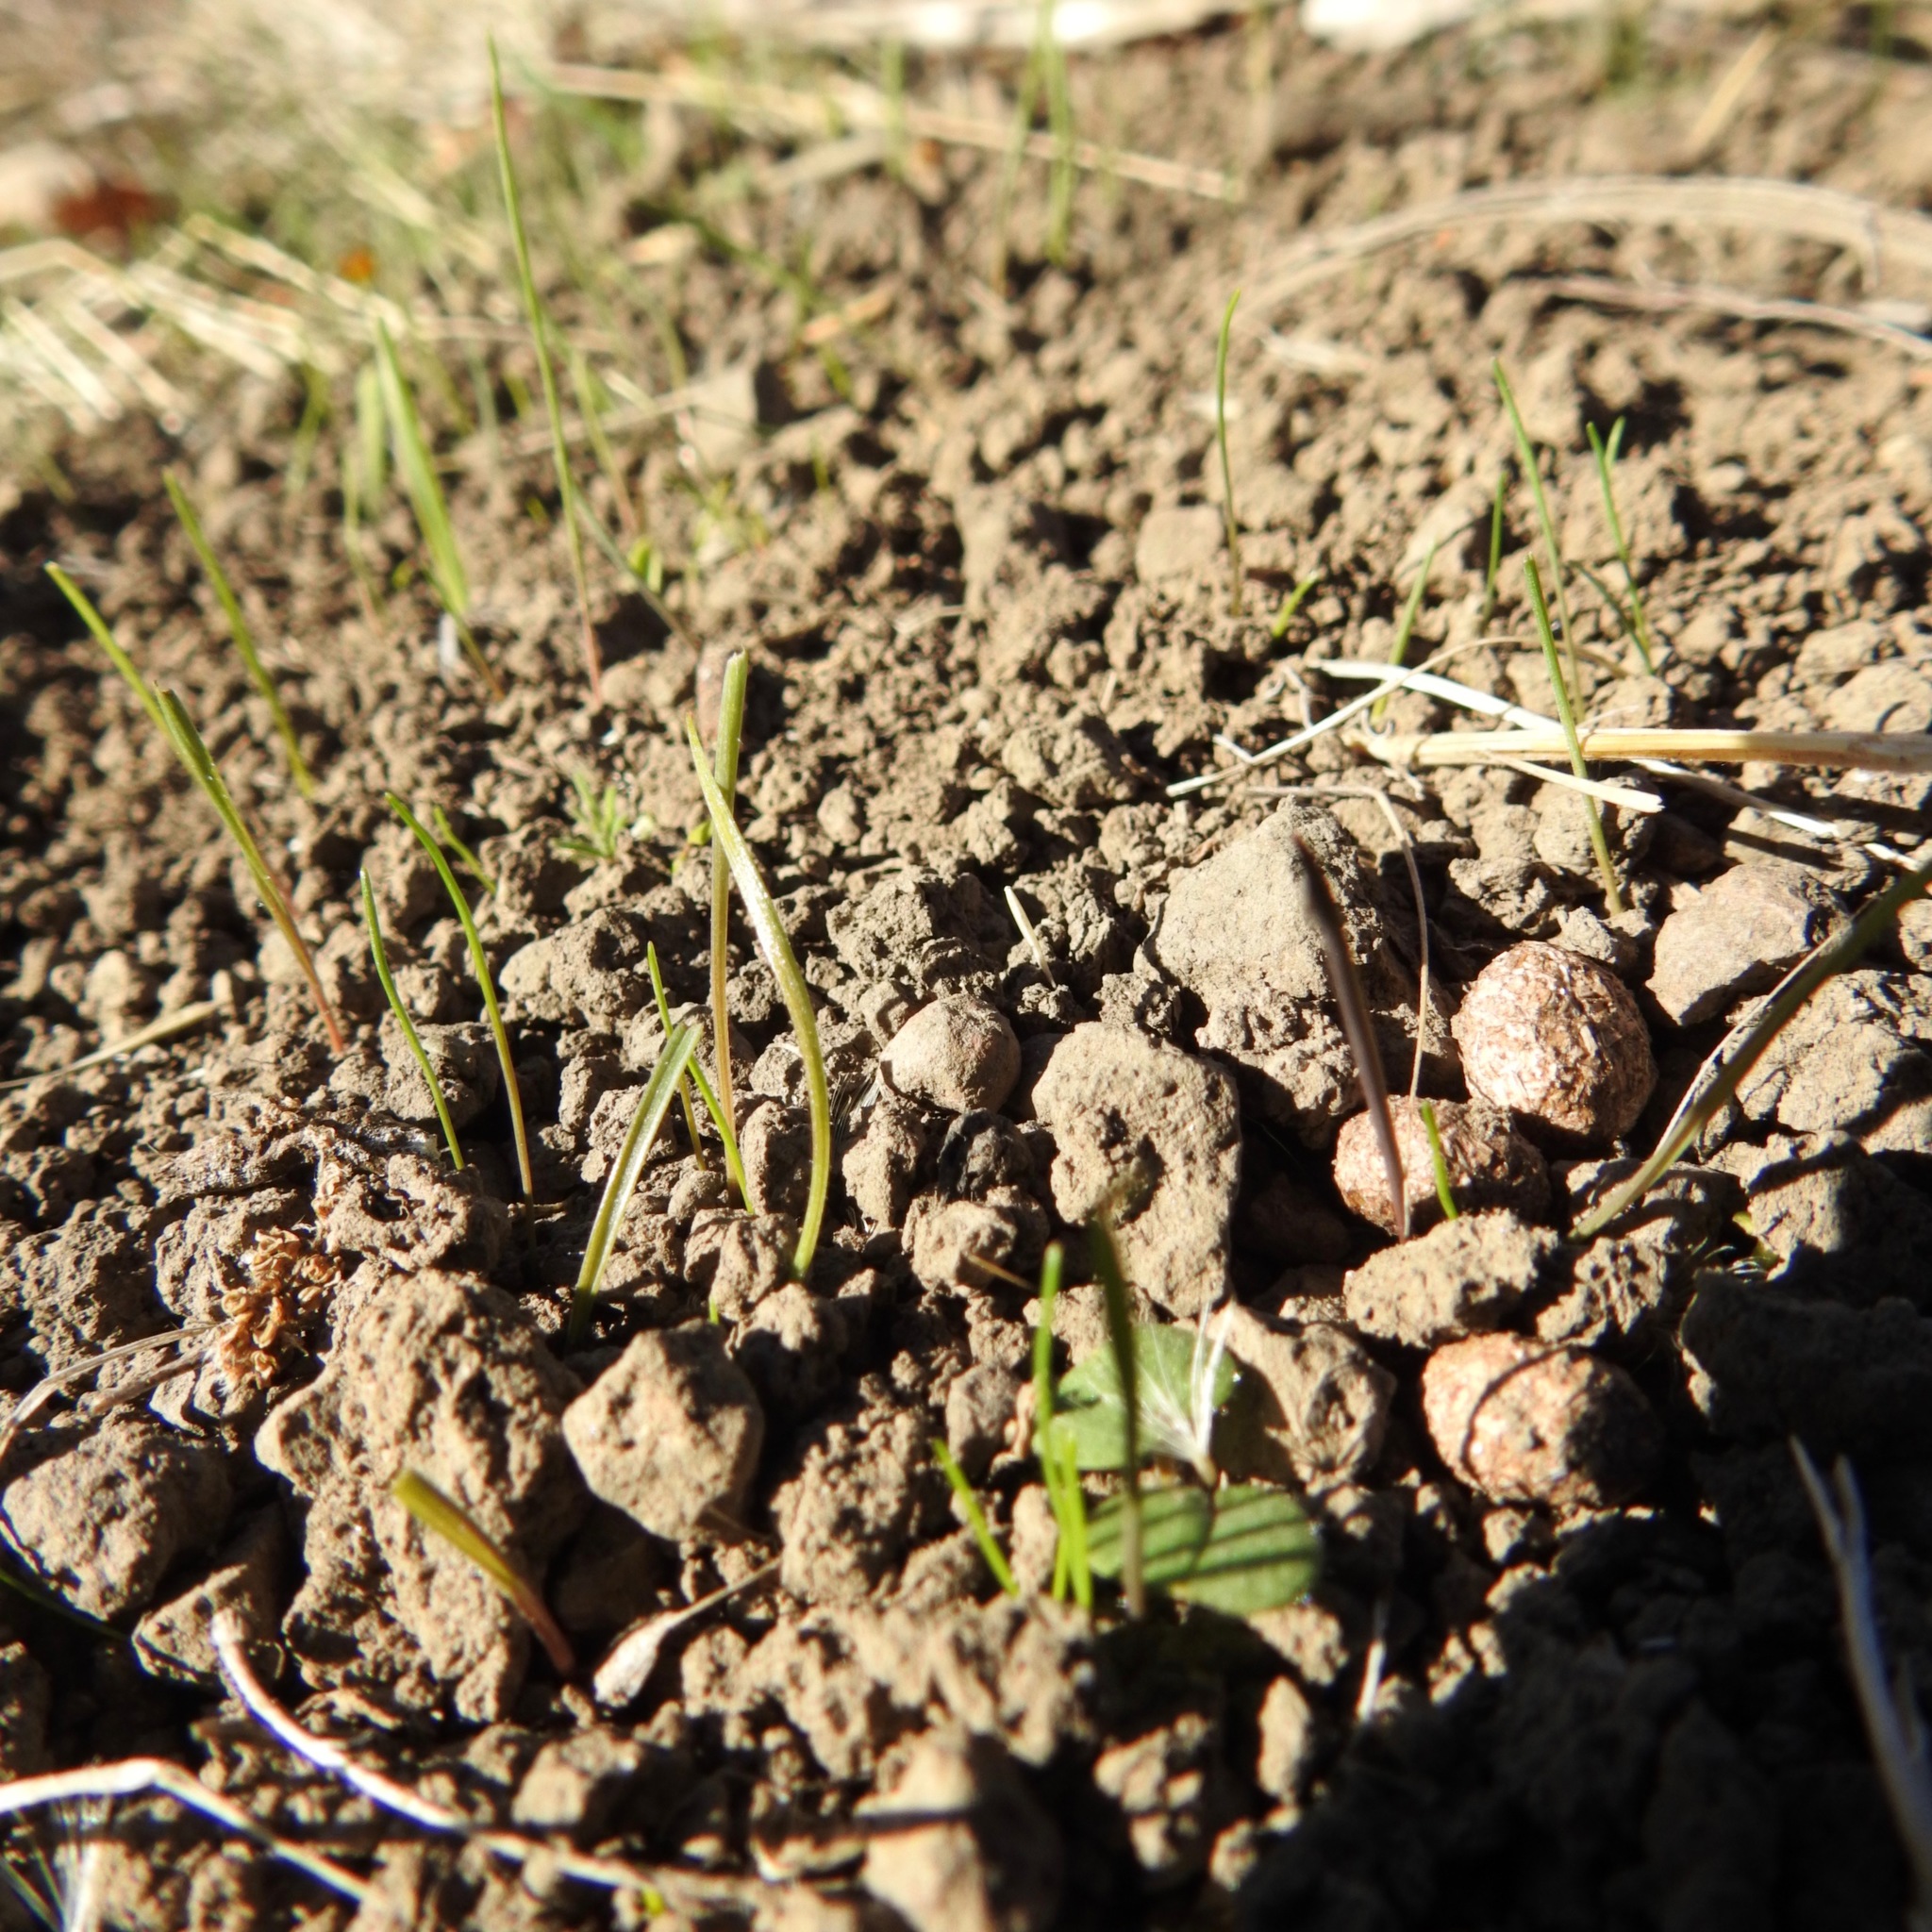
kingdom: Animalia
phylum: Chordata
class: Mammalia
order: Lagomorpha
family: Leporidae
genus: Lepus
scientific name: Lepus californicus
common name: Black-tailed jackrabbit
